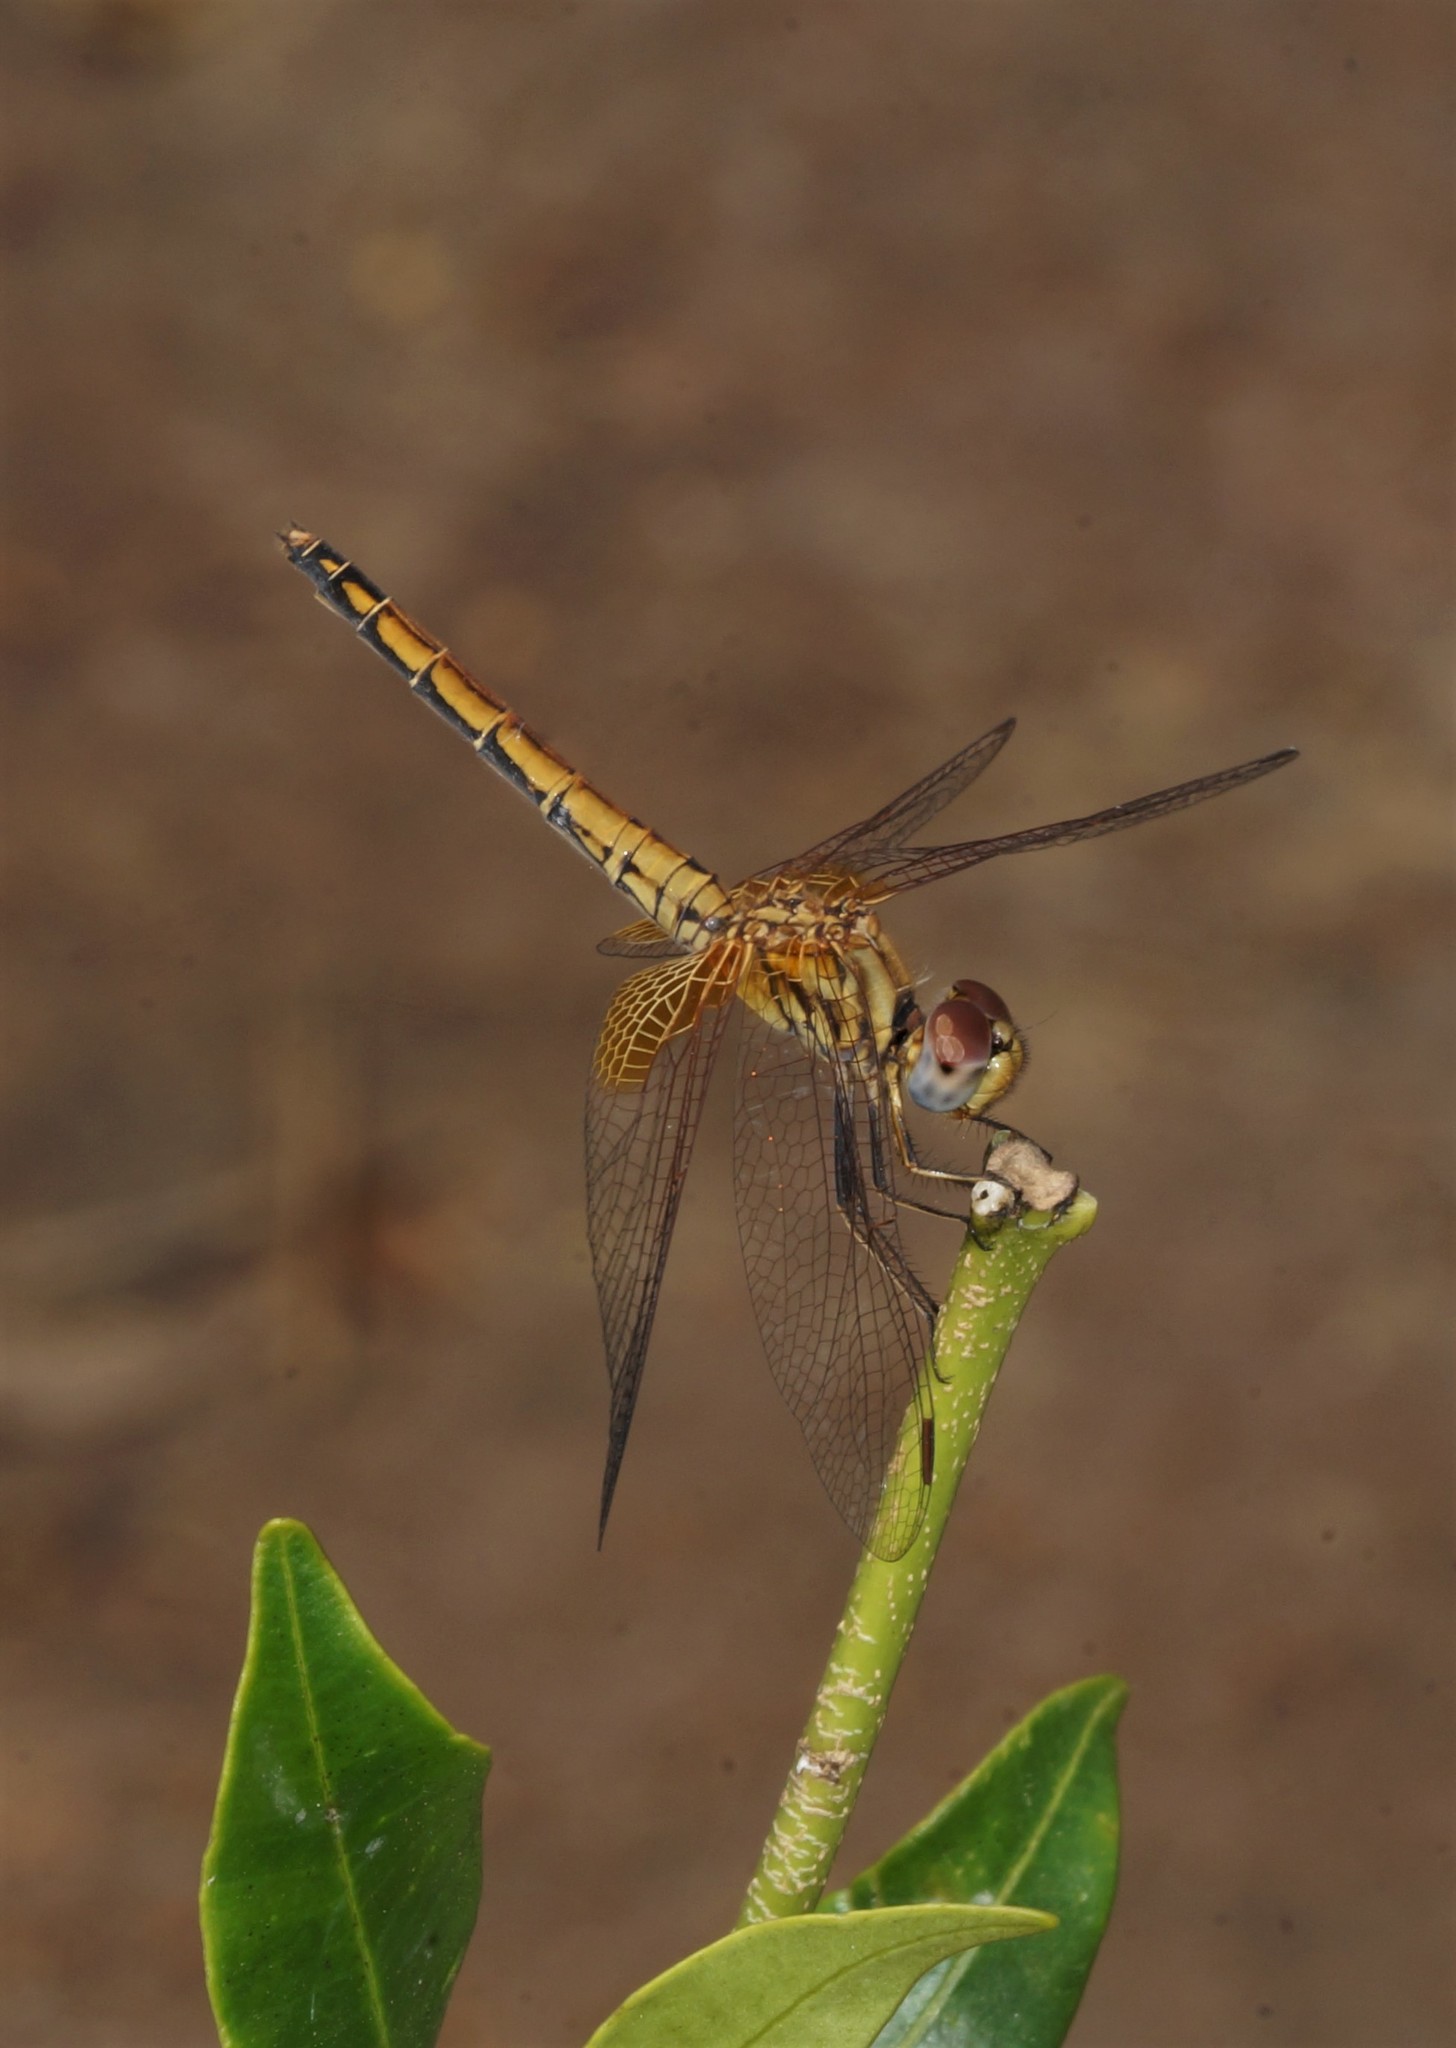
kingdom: Animalia
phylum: Arthropoda
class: Insecta
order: Odonata
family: Libellulidae
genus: Trithemis
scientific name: Trithemis aurora
